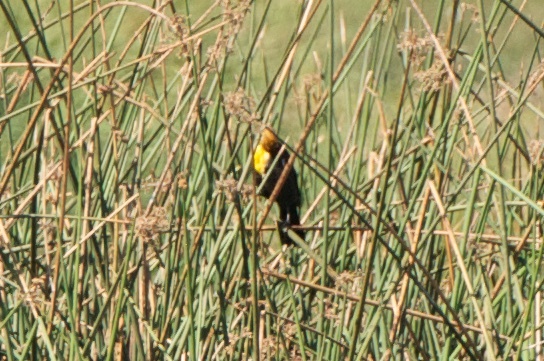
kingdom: Animalia
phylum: Chordata
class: Aves
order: Passeriformes
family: Icteridae
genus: Xanthocephalus
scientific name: Xanthocephalus xanthocephalus
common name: Yellow-headed blackbird
